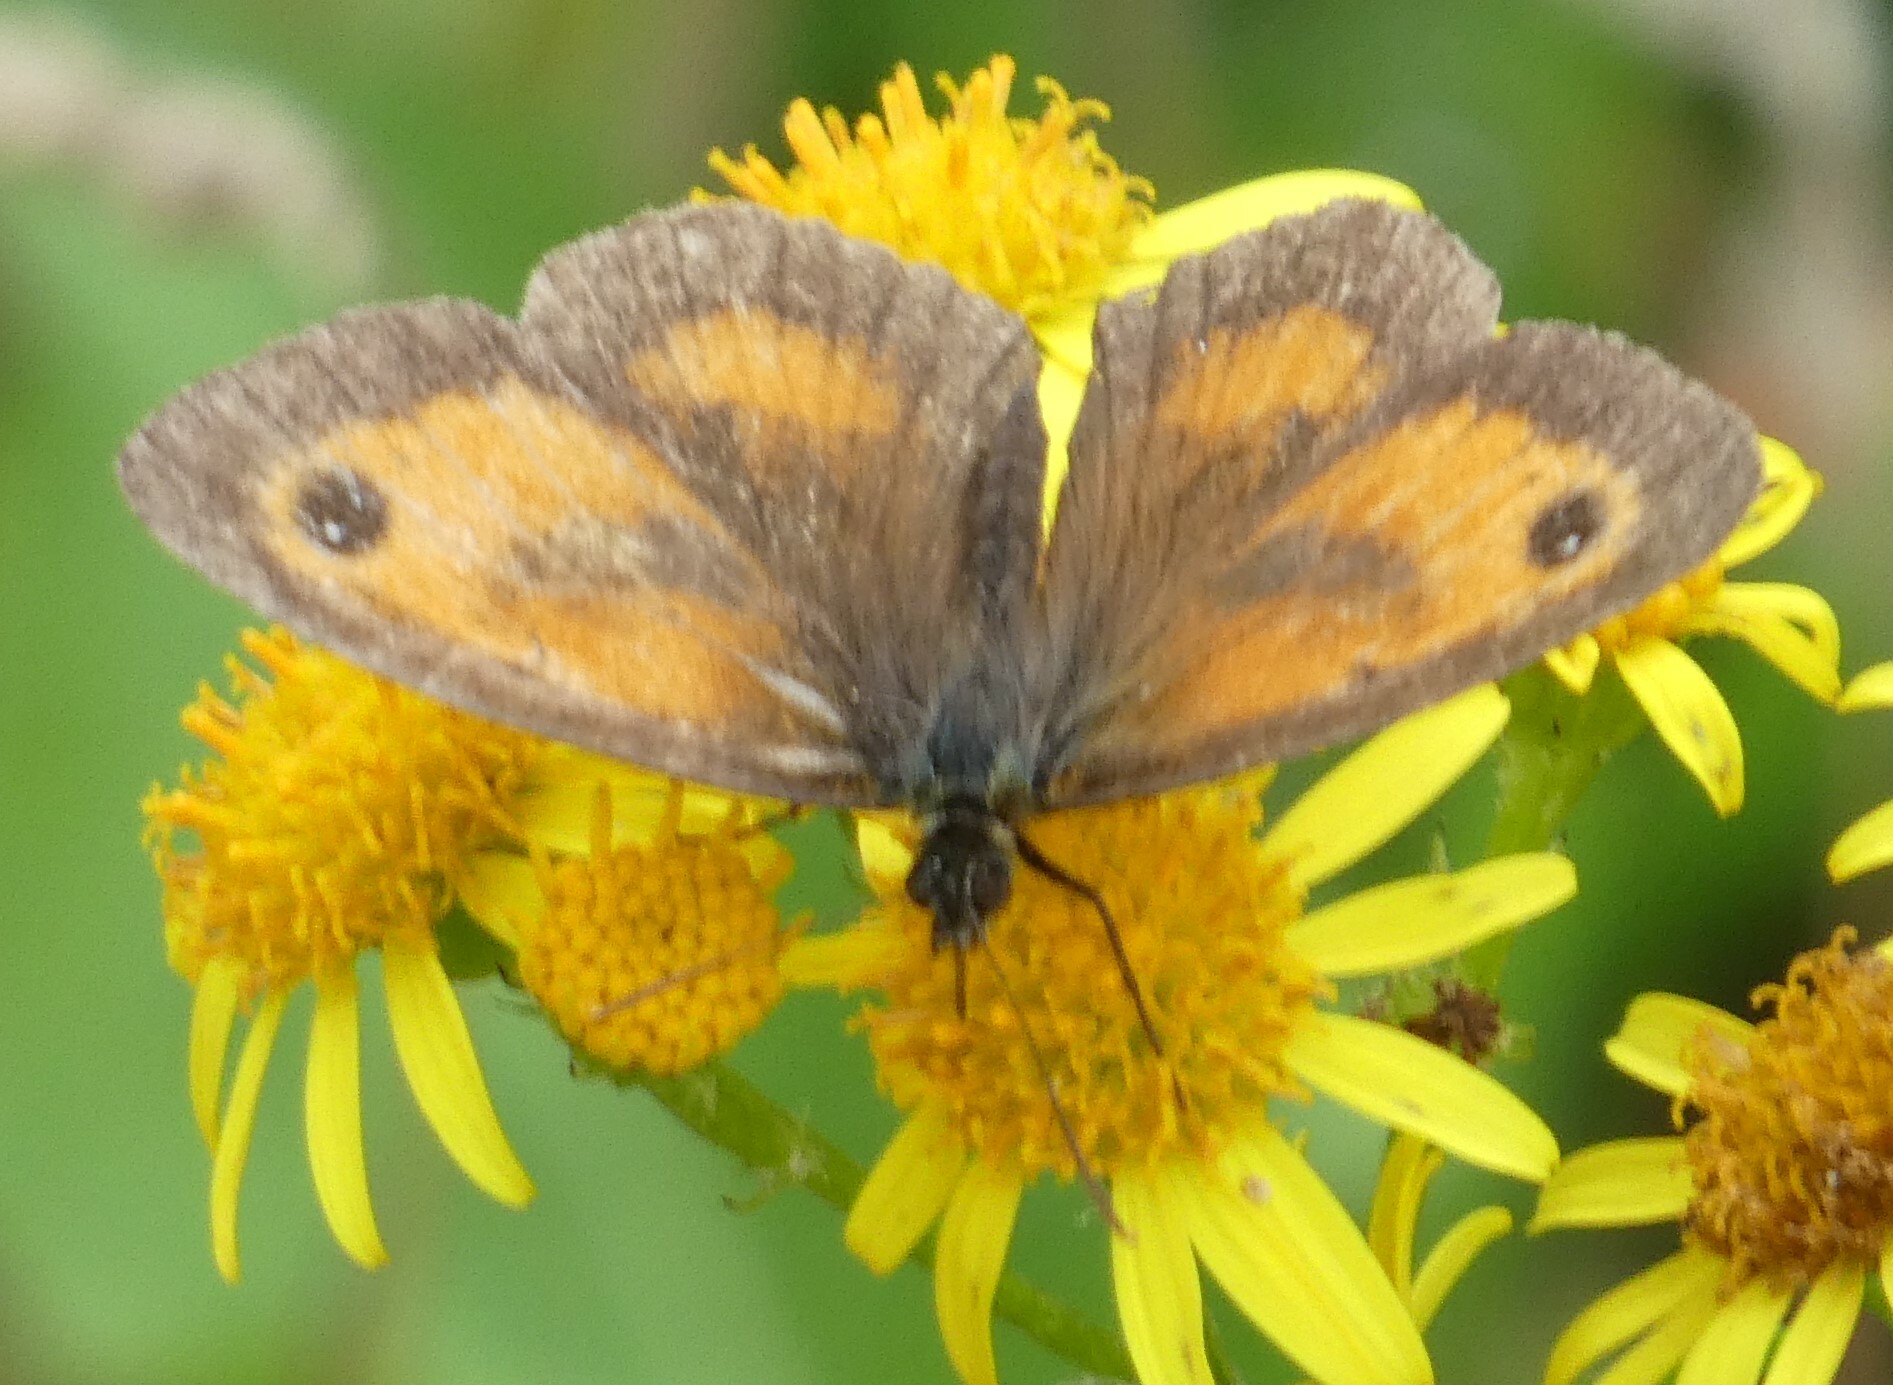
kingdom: Animalia
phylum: Arthropoda
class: Insecta
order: Lepidoptera
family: Nymphalidae
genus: Pyronia
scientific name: Pyronia tithonus
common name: Gatekeeper
